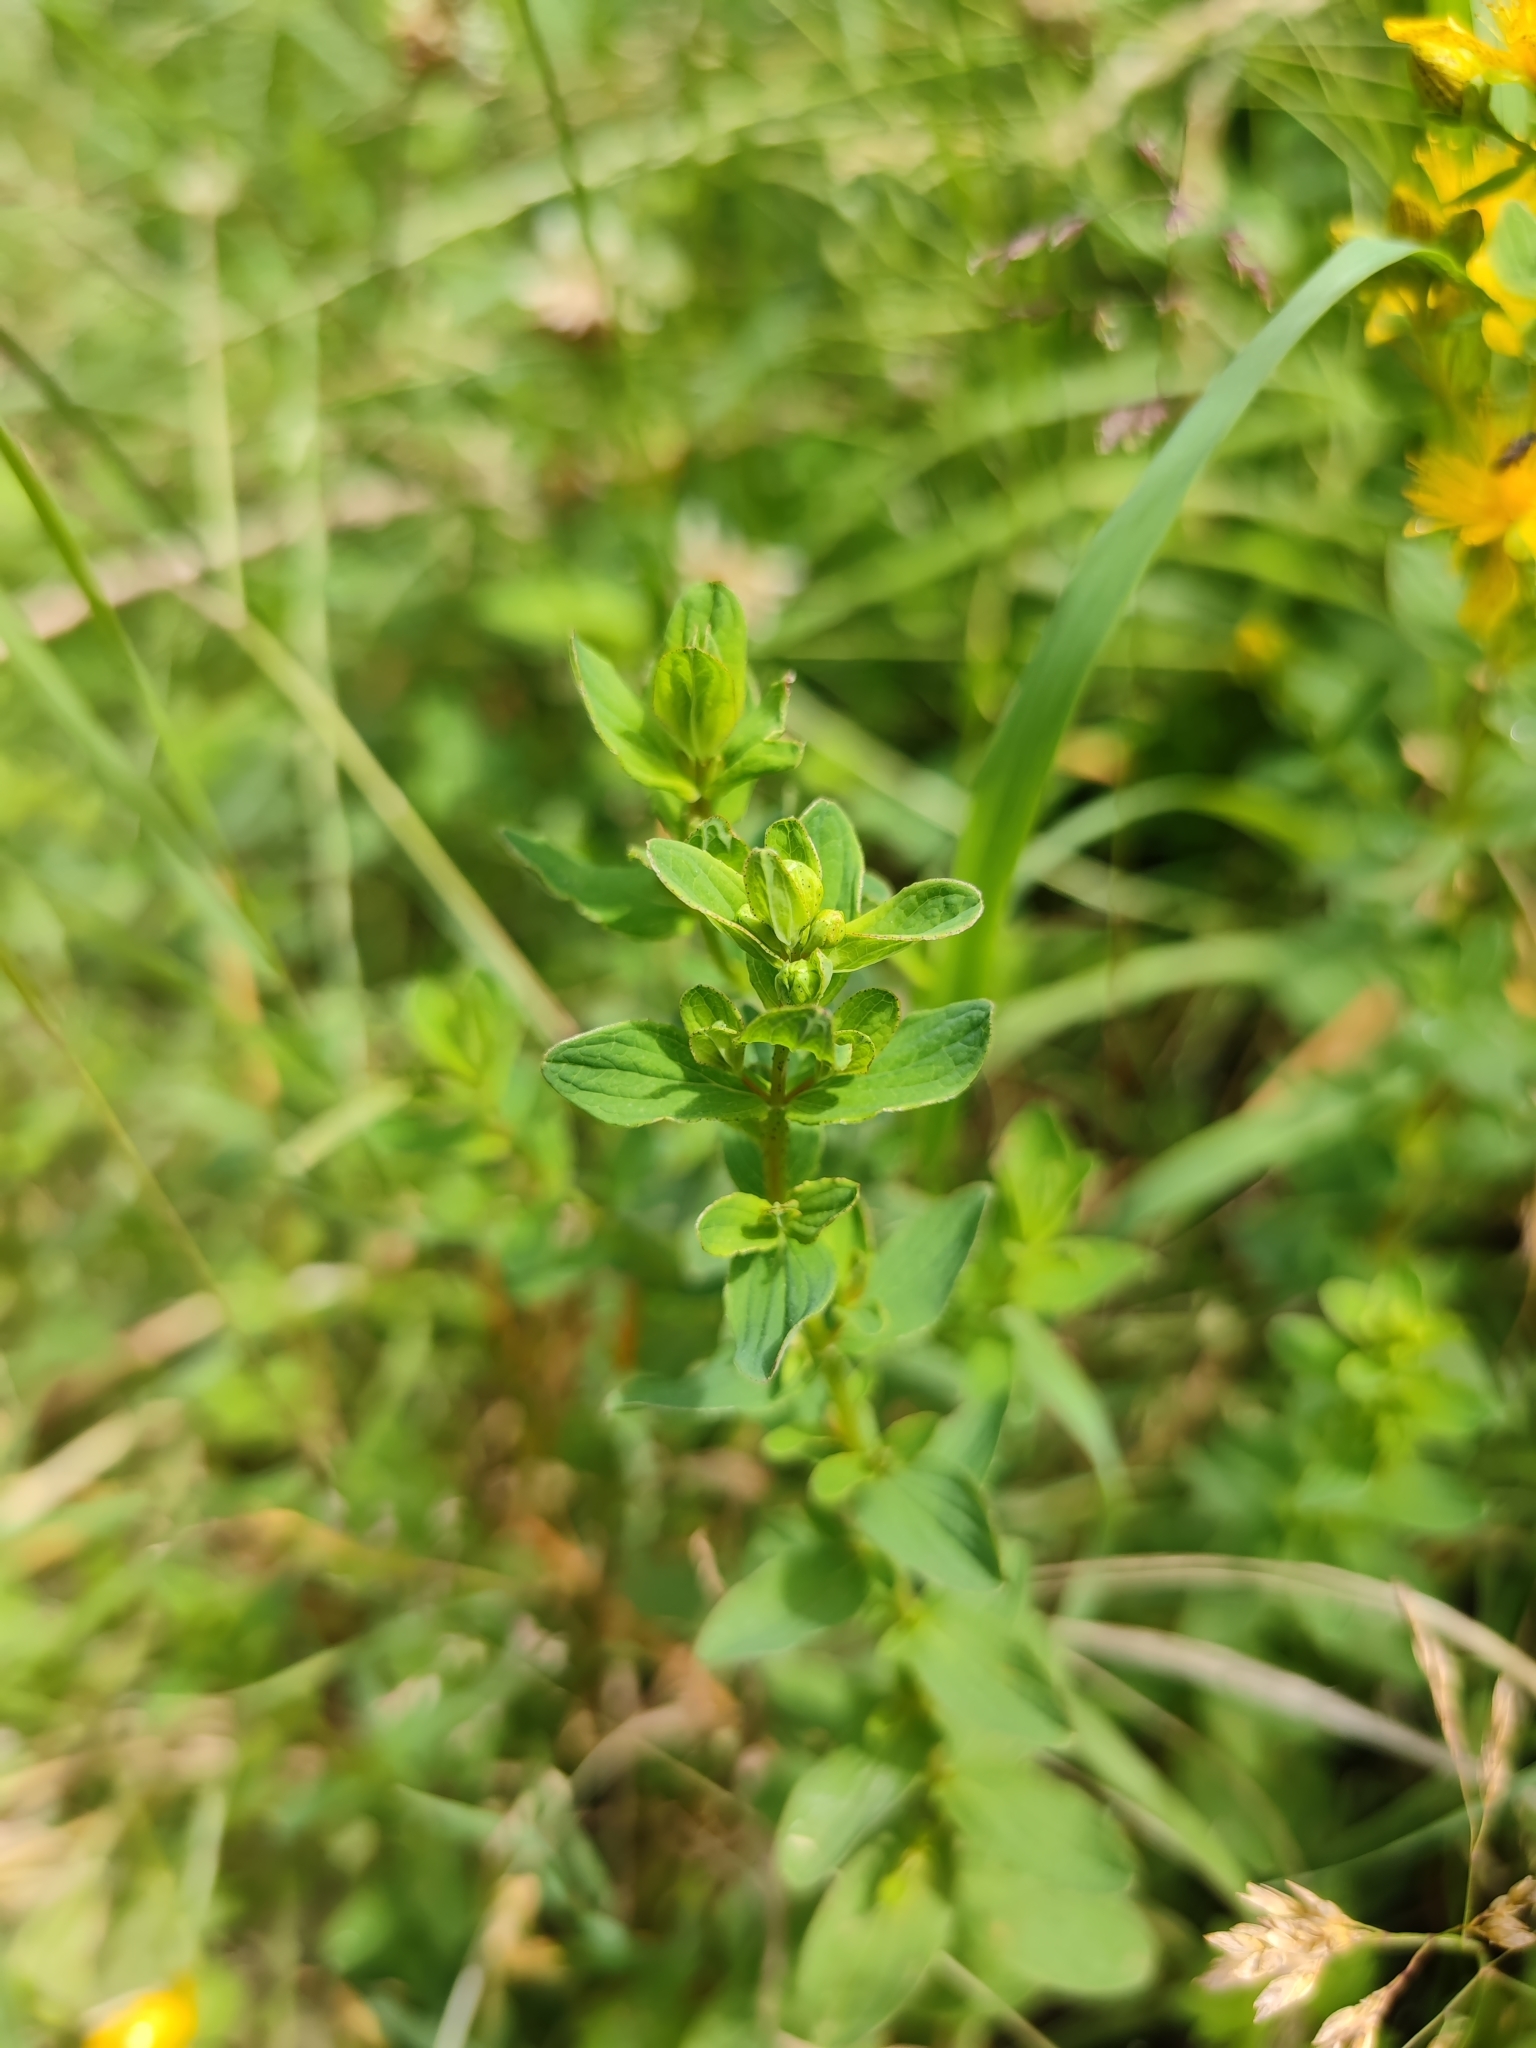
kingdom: Plantae
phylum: Tracheophyta
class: Magnoliopsida
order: Malpighiales
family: Hypericaceae
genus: Hypericum
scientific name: Hypericum maculatum
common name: Imperforate st. john's-wort
